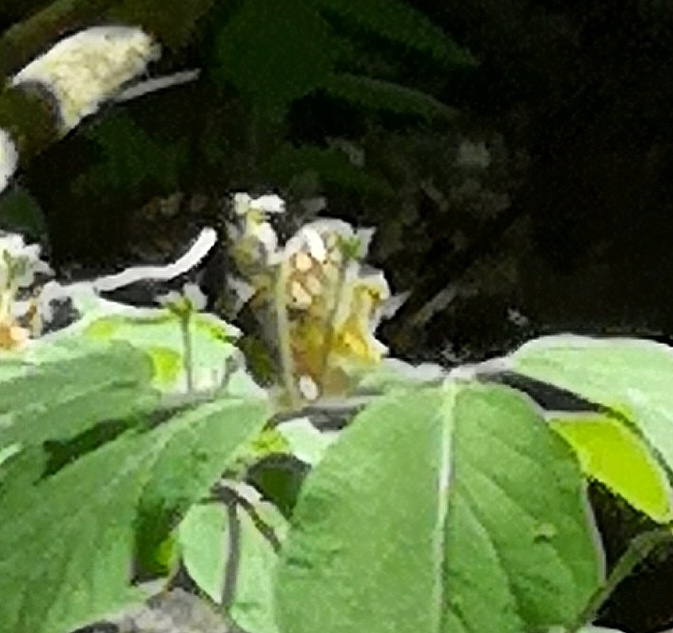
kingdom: Animalia
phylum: Arthropoda
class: Insecta
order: Lepidoptera
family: Nymphalidae
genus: Pararge
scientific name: Pararge aegeria
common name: Speckled wood
